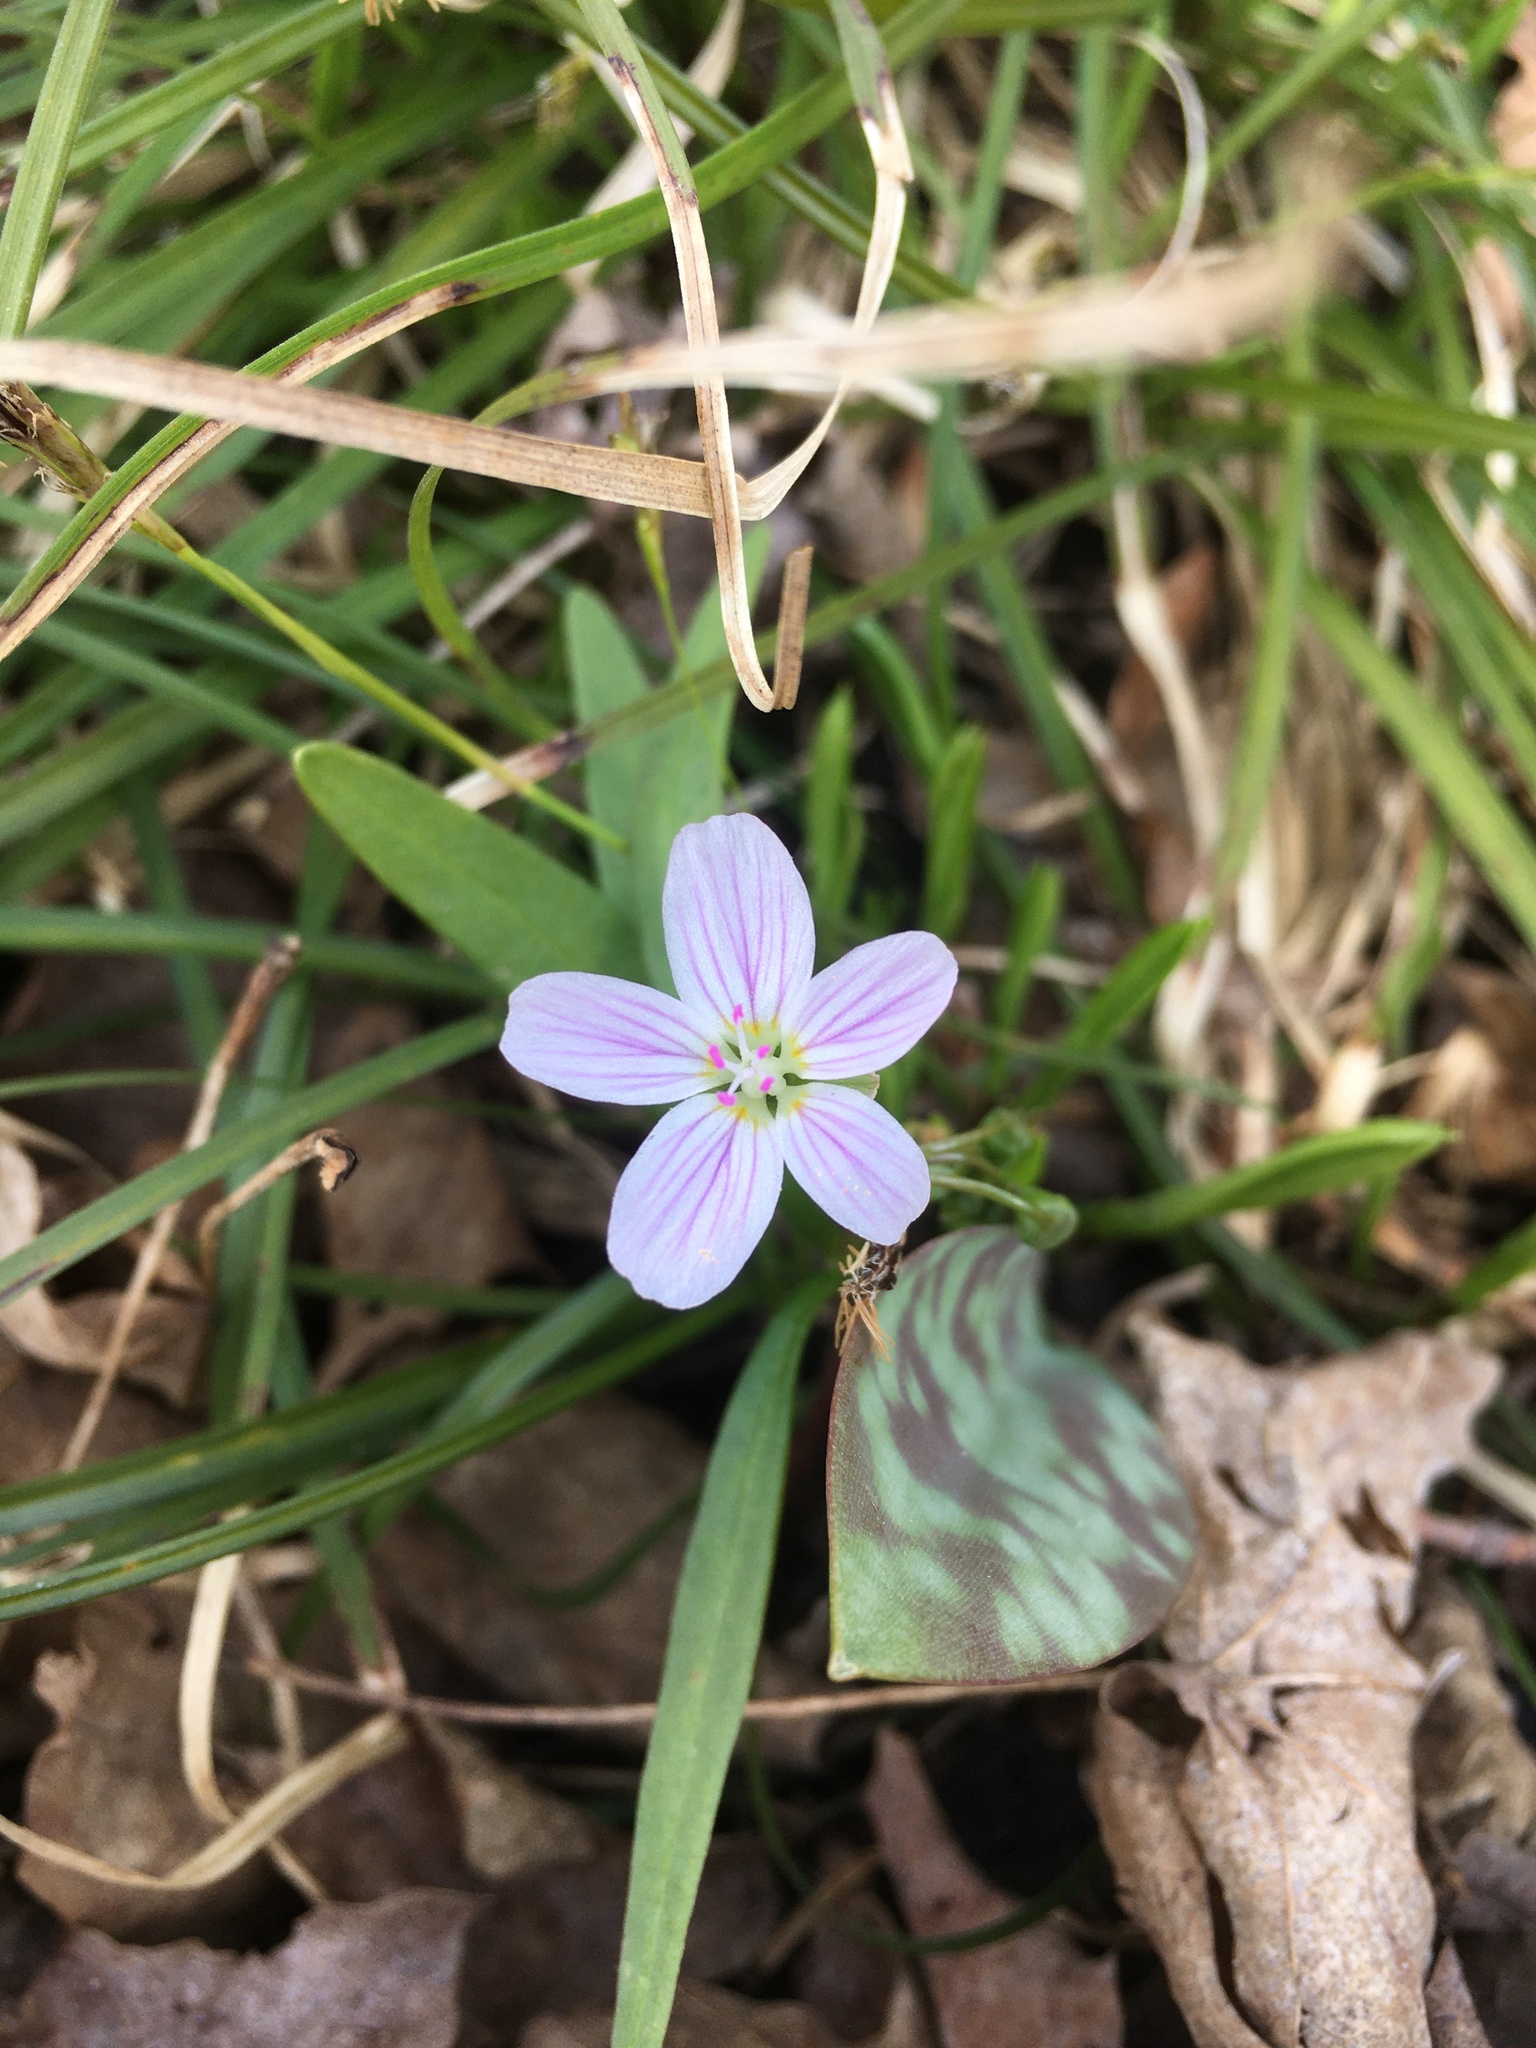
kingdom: Plantae
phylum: Tracheophyta
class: Magnoliopsida
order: Caryophyllales
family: Montiaceae
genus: Claytonia
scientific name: Claytonia virginica
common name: Virginia springbeauty
